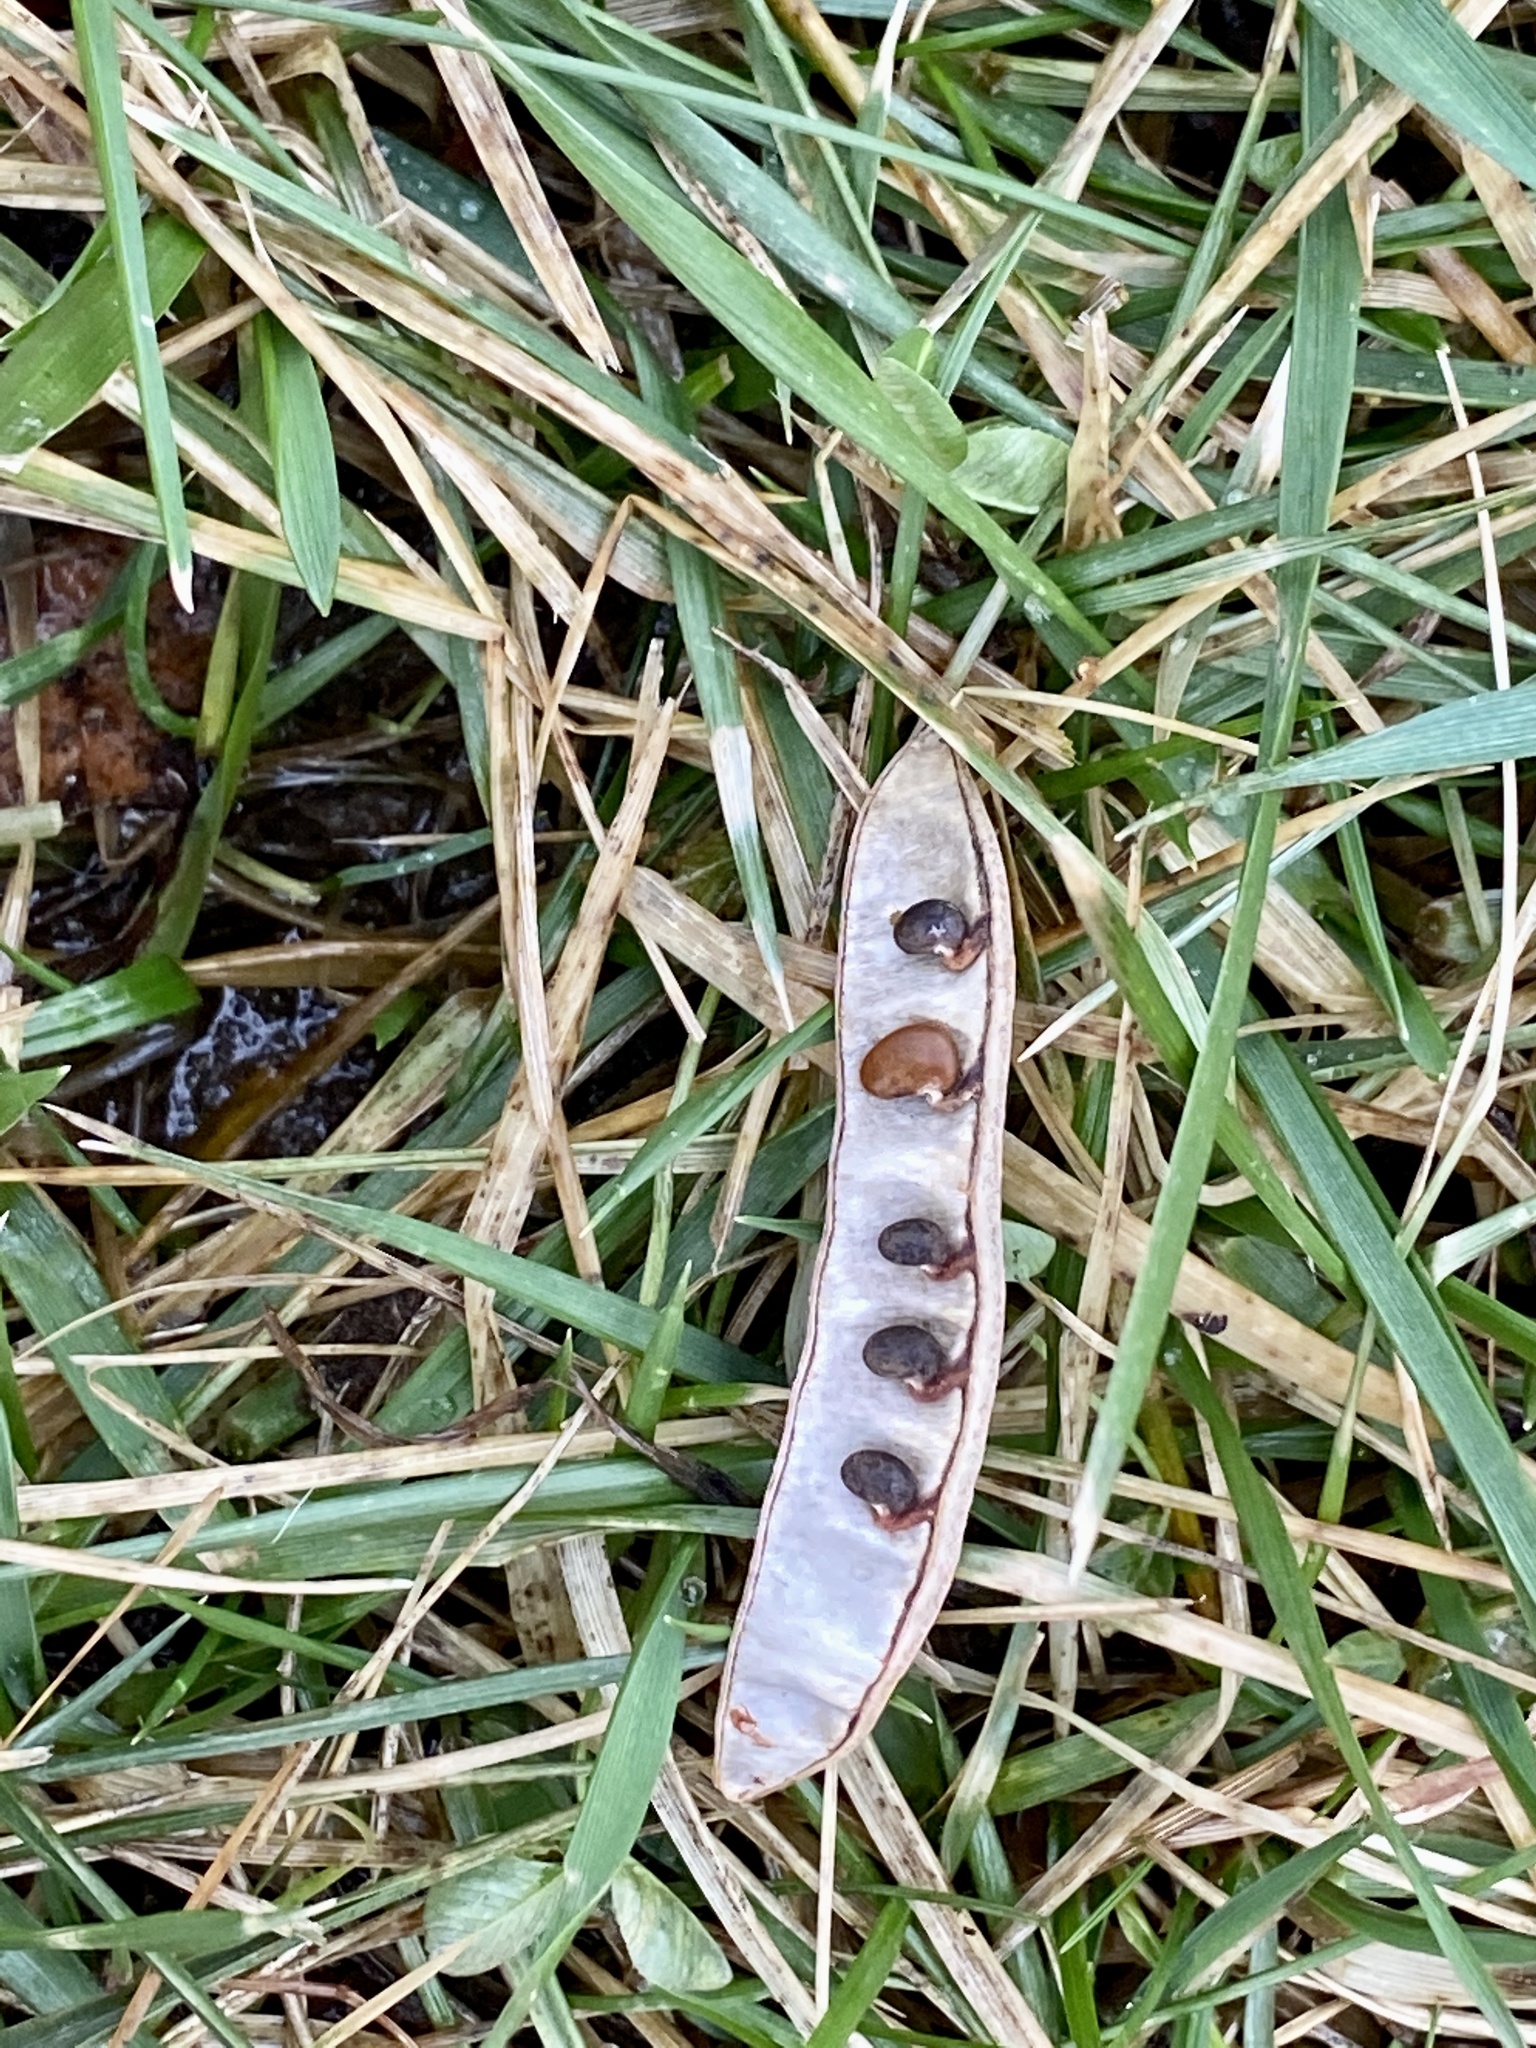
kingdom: Plantae
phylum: Tracheophyta
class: Magnoliopsida
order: Fabales
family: Fabaceae
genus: Robinia
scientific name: Robinia pseudoacacia
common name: Black locust
